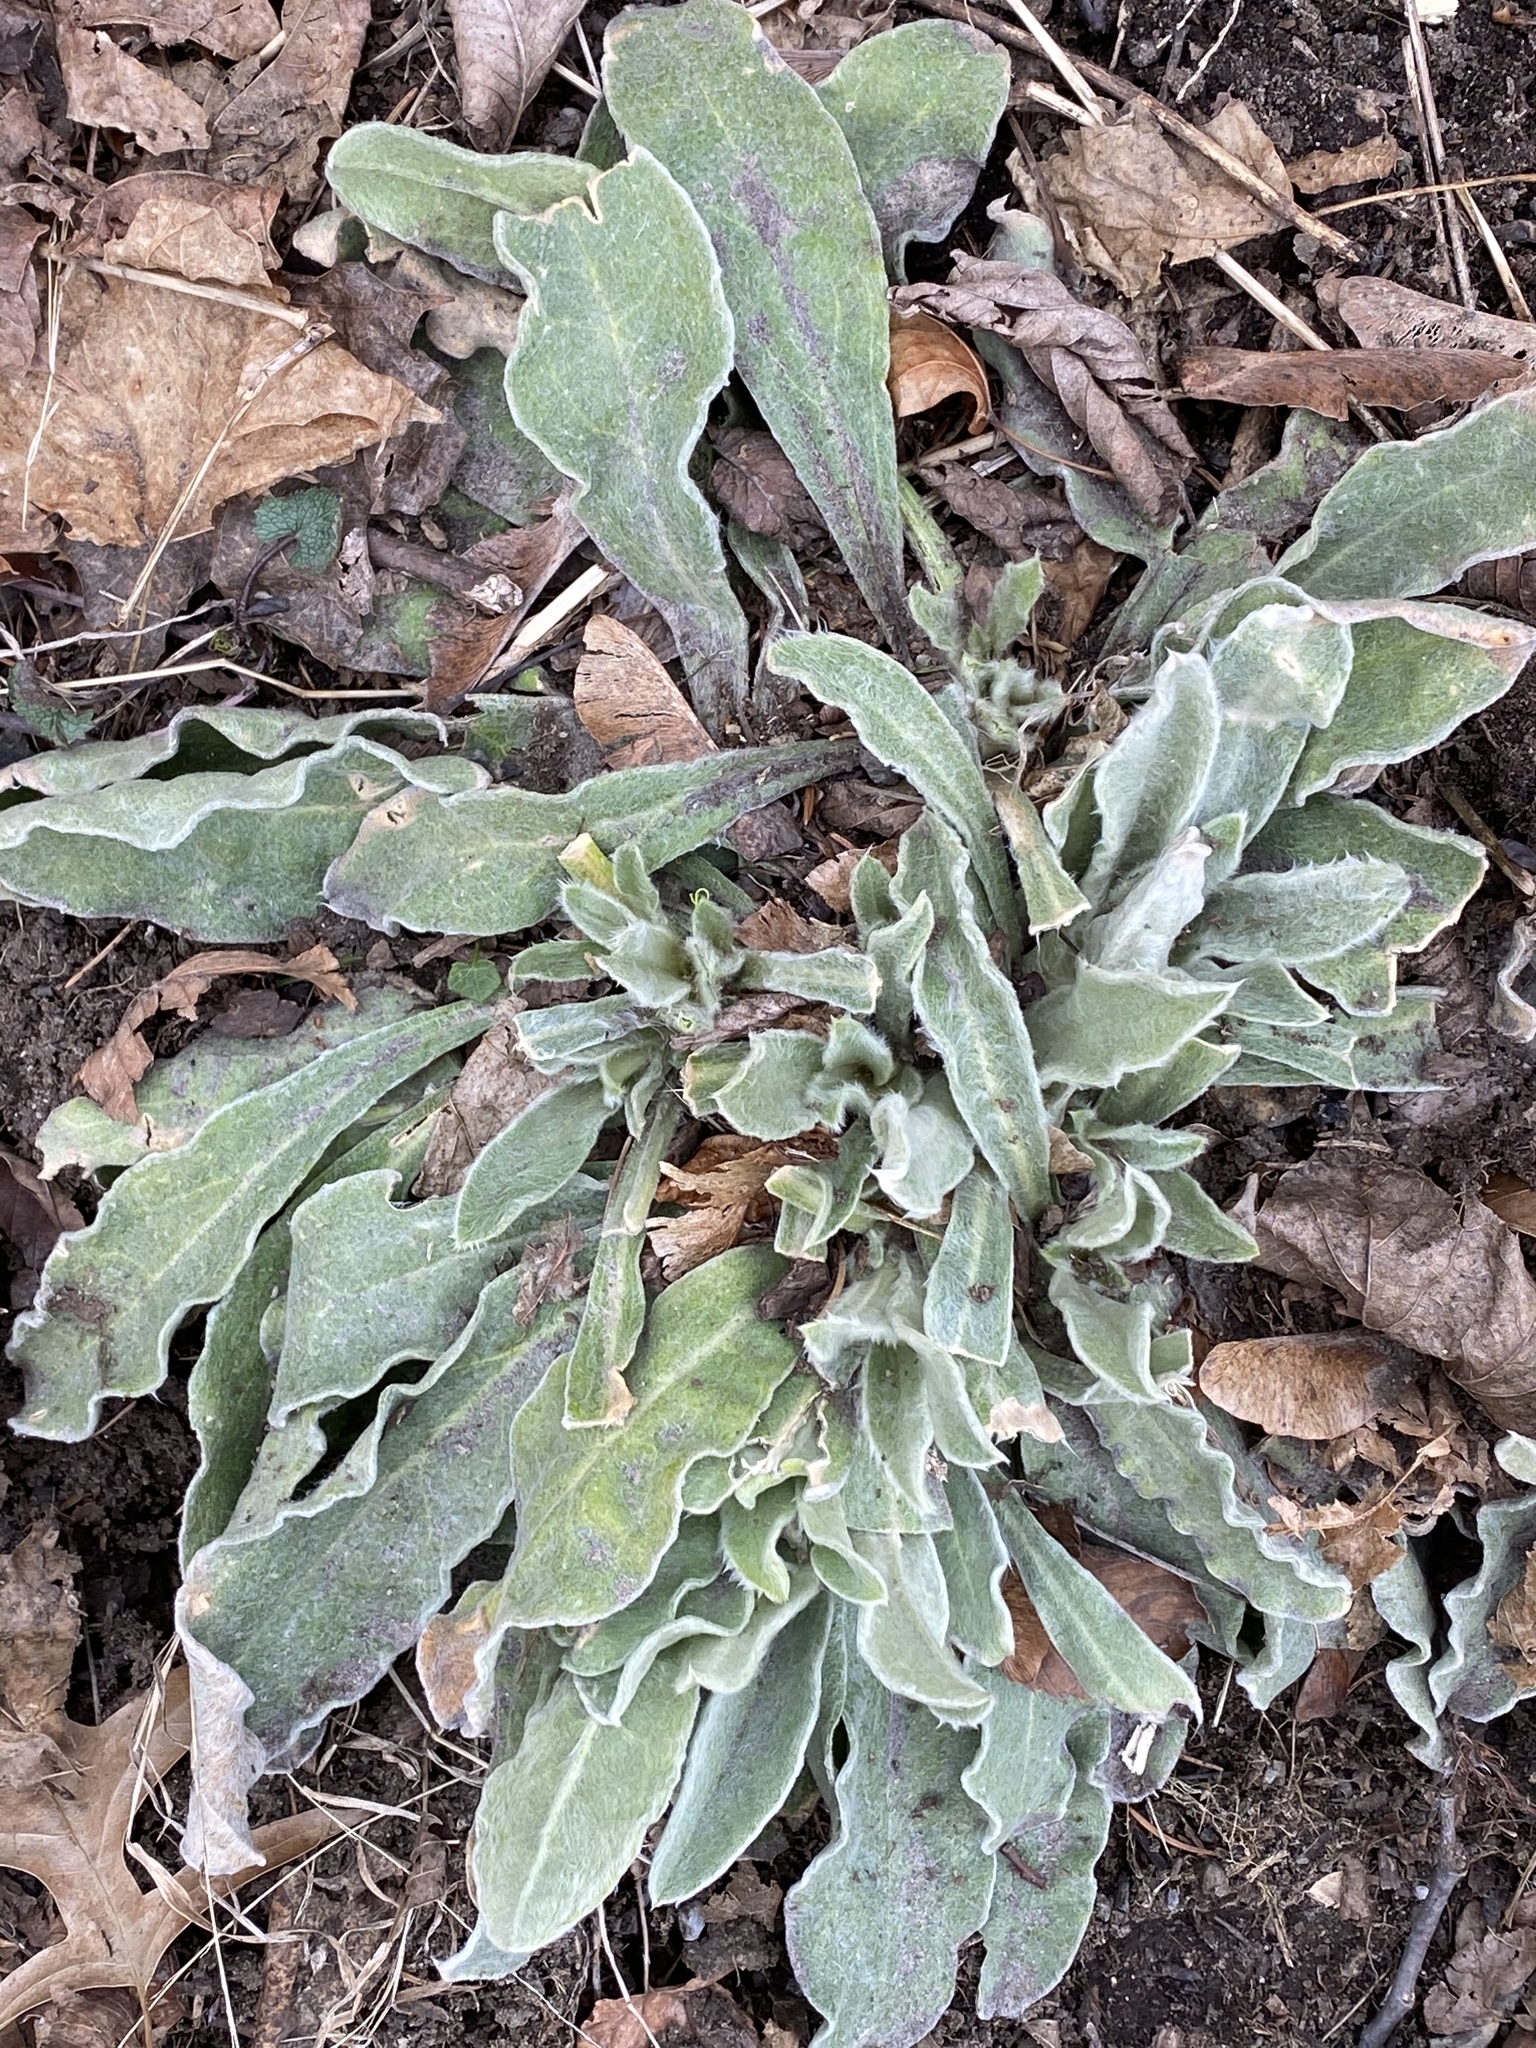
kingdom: Plantae
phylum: Tracheophyta
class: Magnoliopsida
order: Caryophyllales
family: Caryophyllaceae
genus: Silene
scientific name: Silene coronaria
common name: Rose campion
